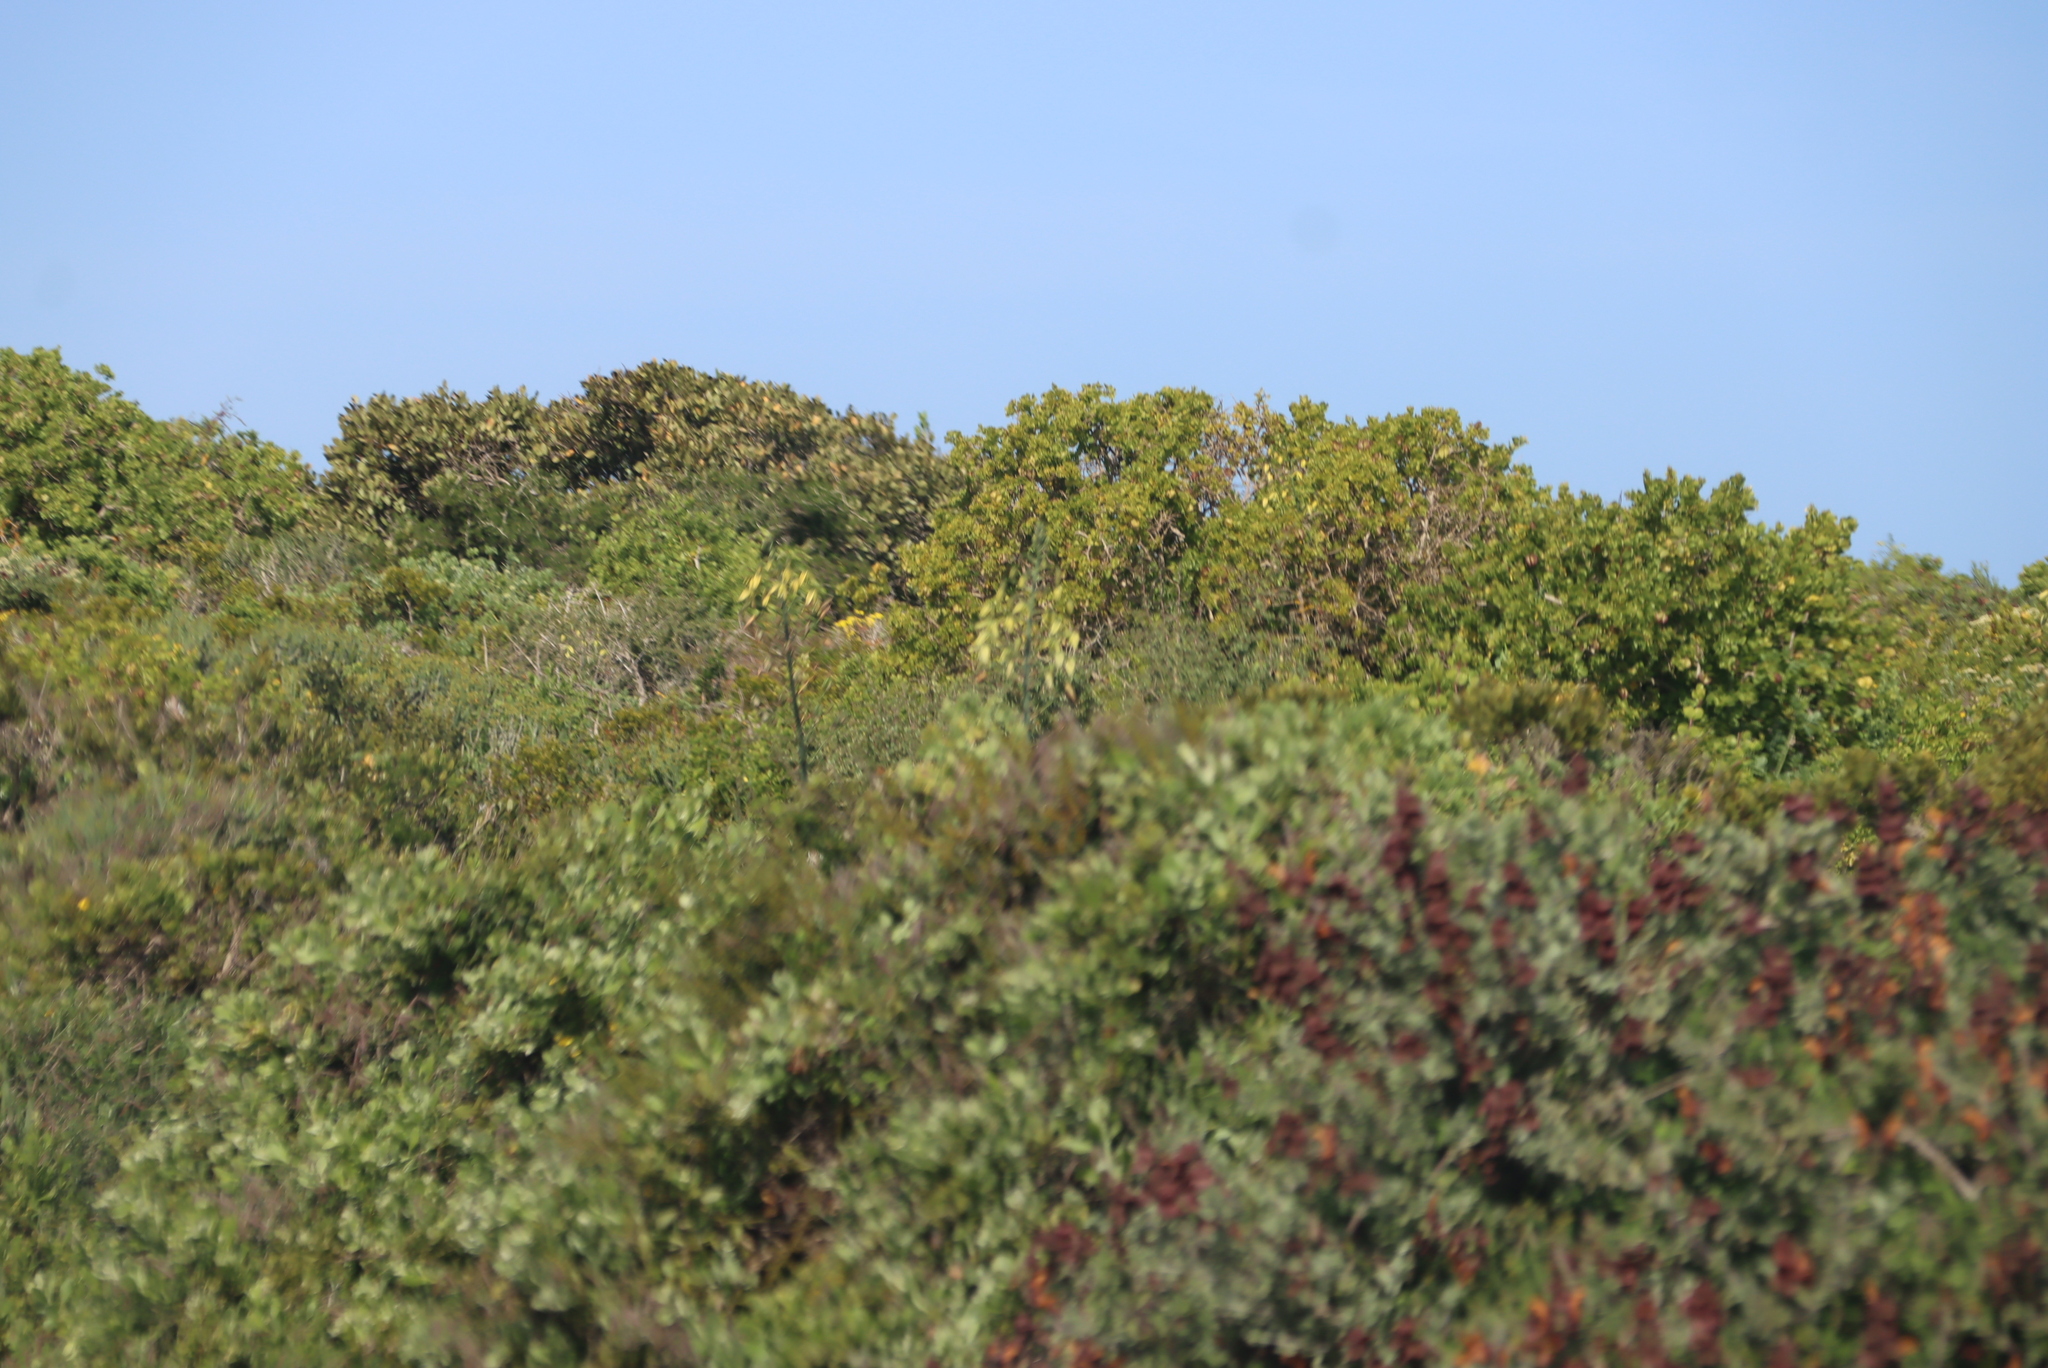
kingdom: Plantae
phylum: Tracheophyta
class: Liliopsida
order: Asparagales
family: Asparagaceae
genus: Albuca
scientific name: Albuca grandis
